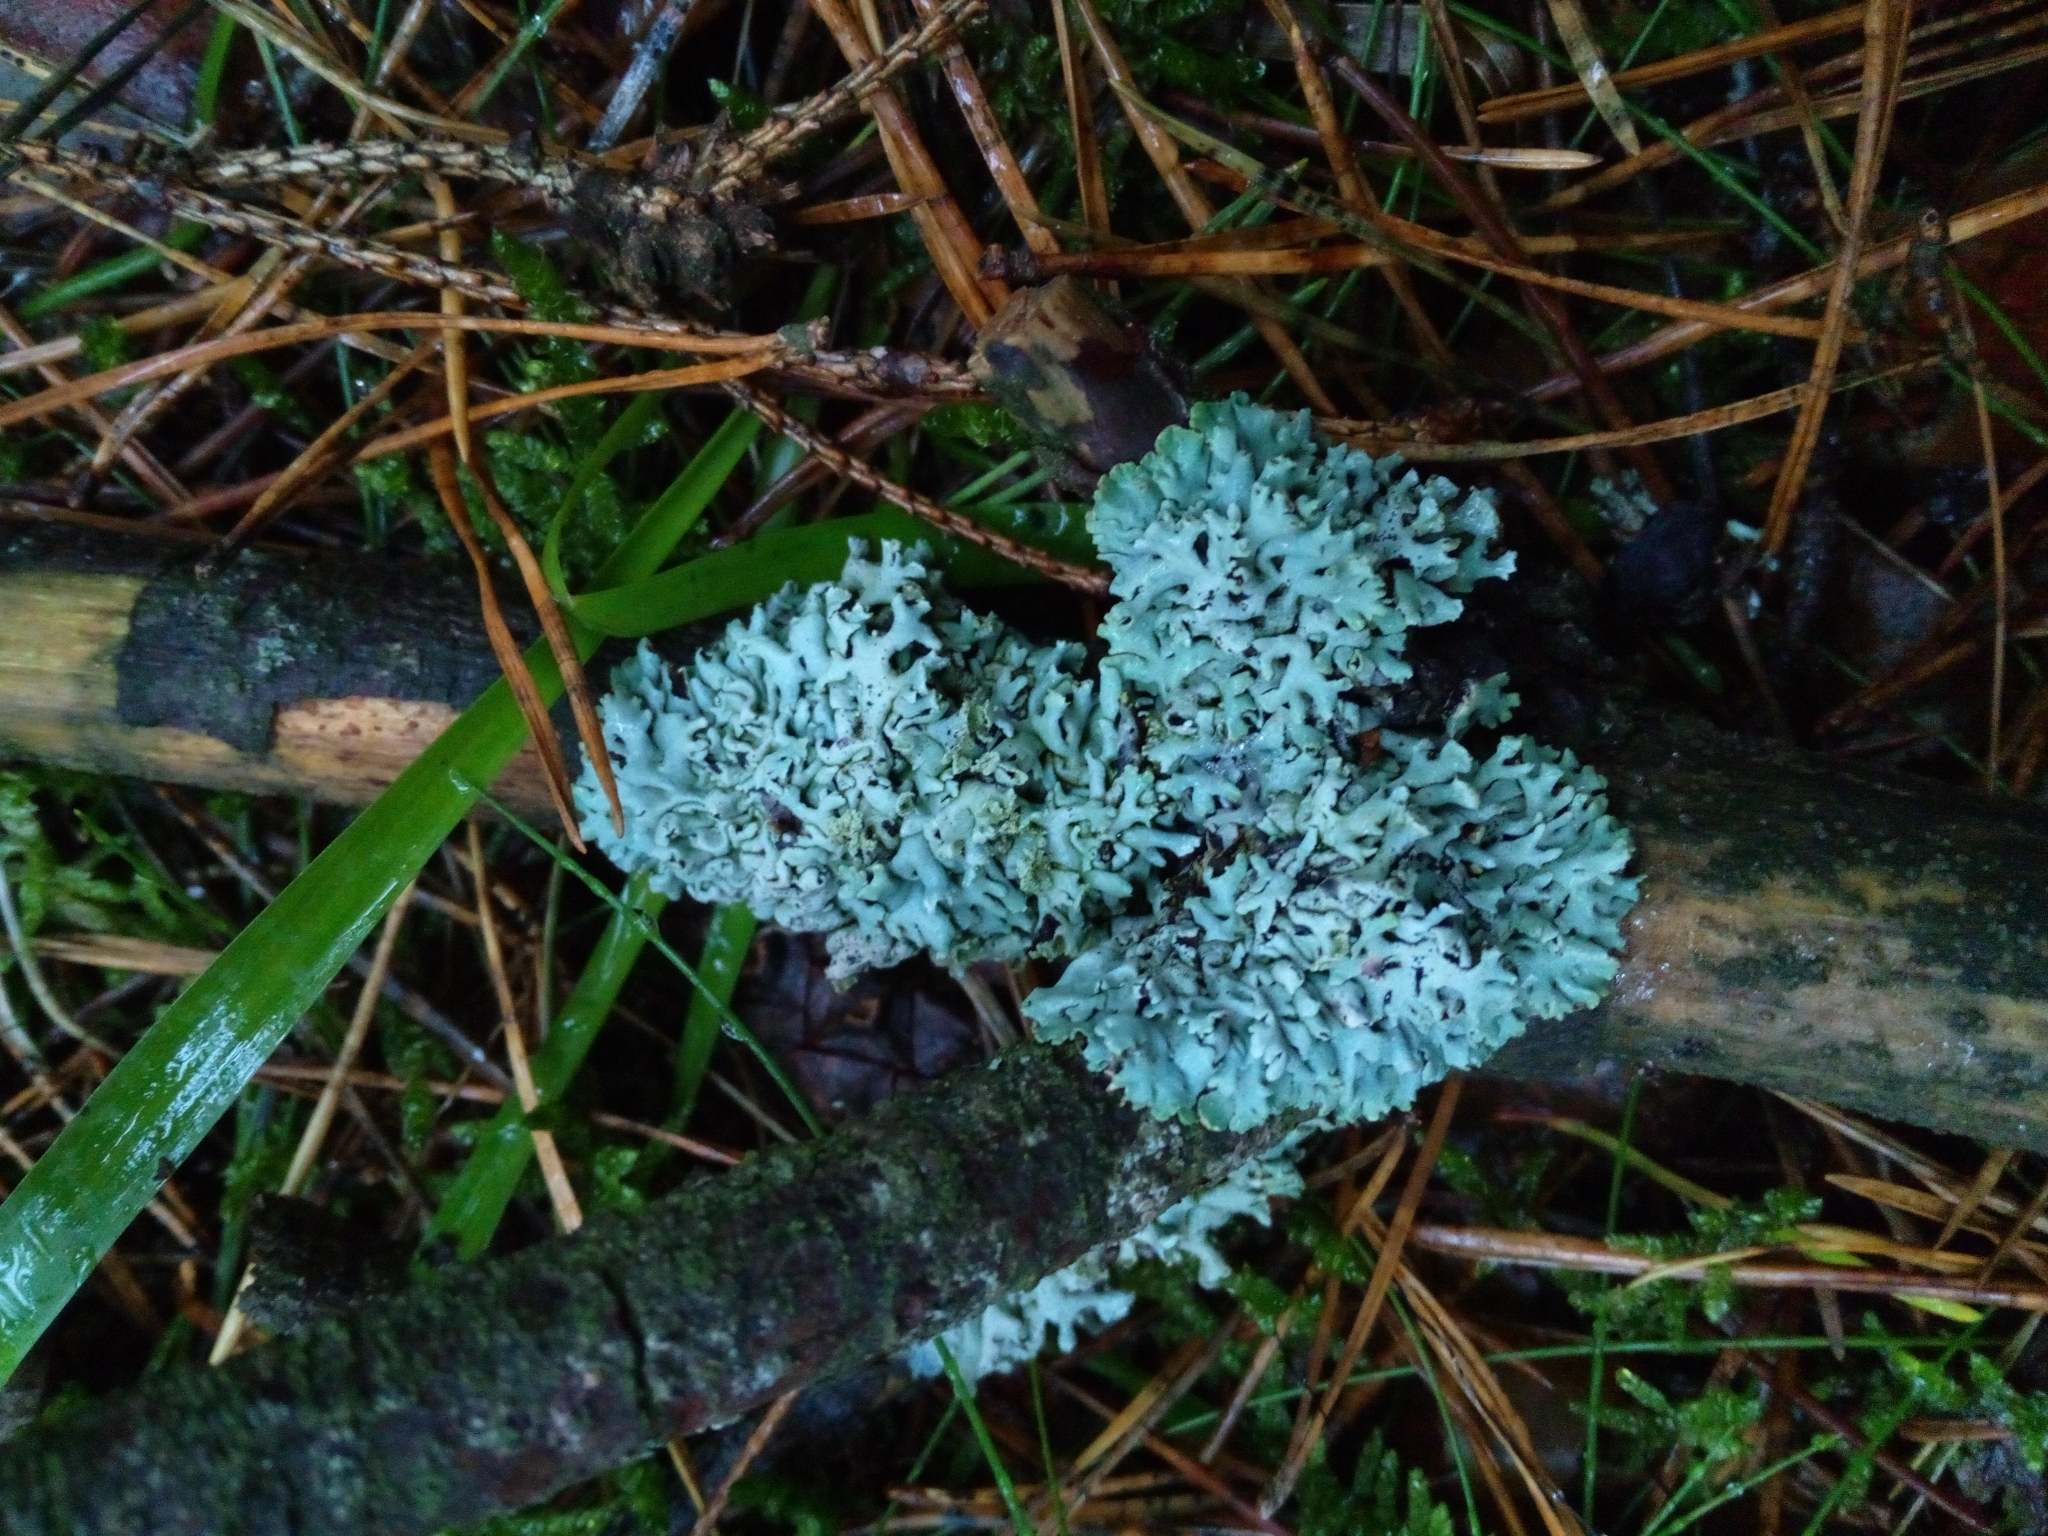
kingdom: Fungi
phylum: Ascomycota
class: Lecanoromycetes
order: Lecanorales
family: Parmeliaceae
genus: Hypogymnia
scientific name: Hypogymnia physodes
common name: Dark crottle
